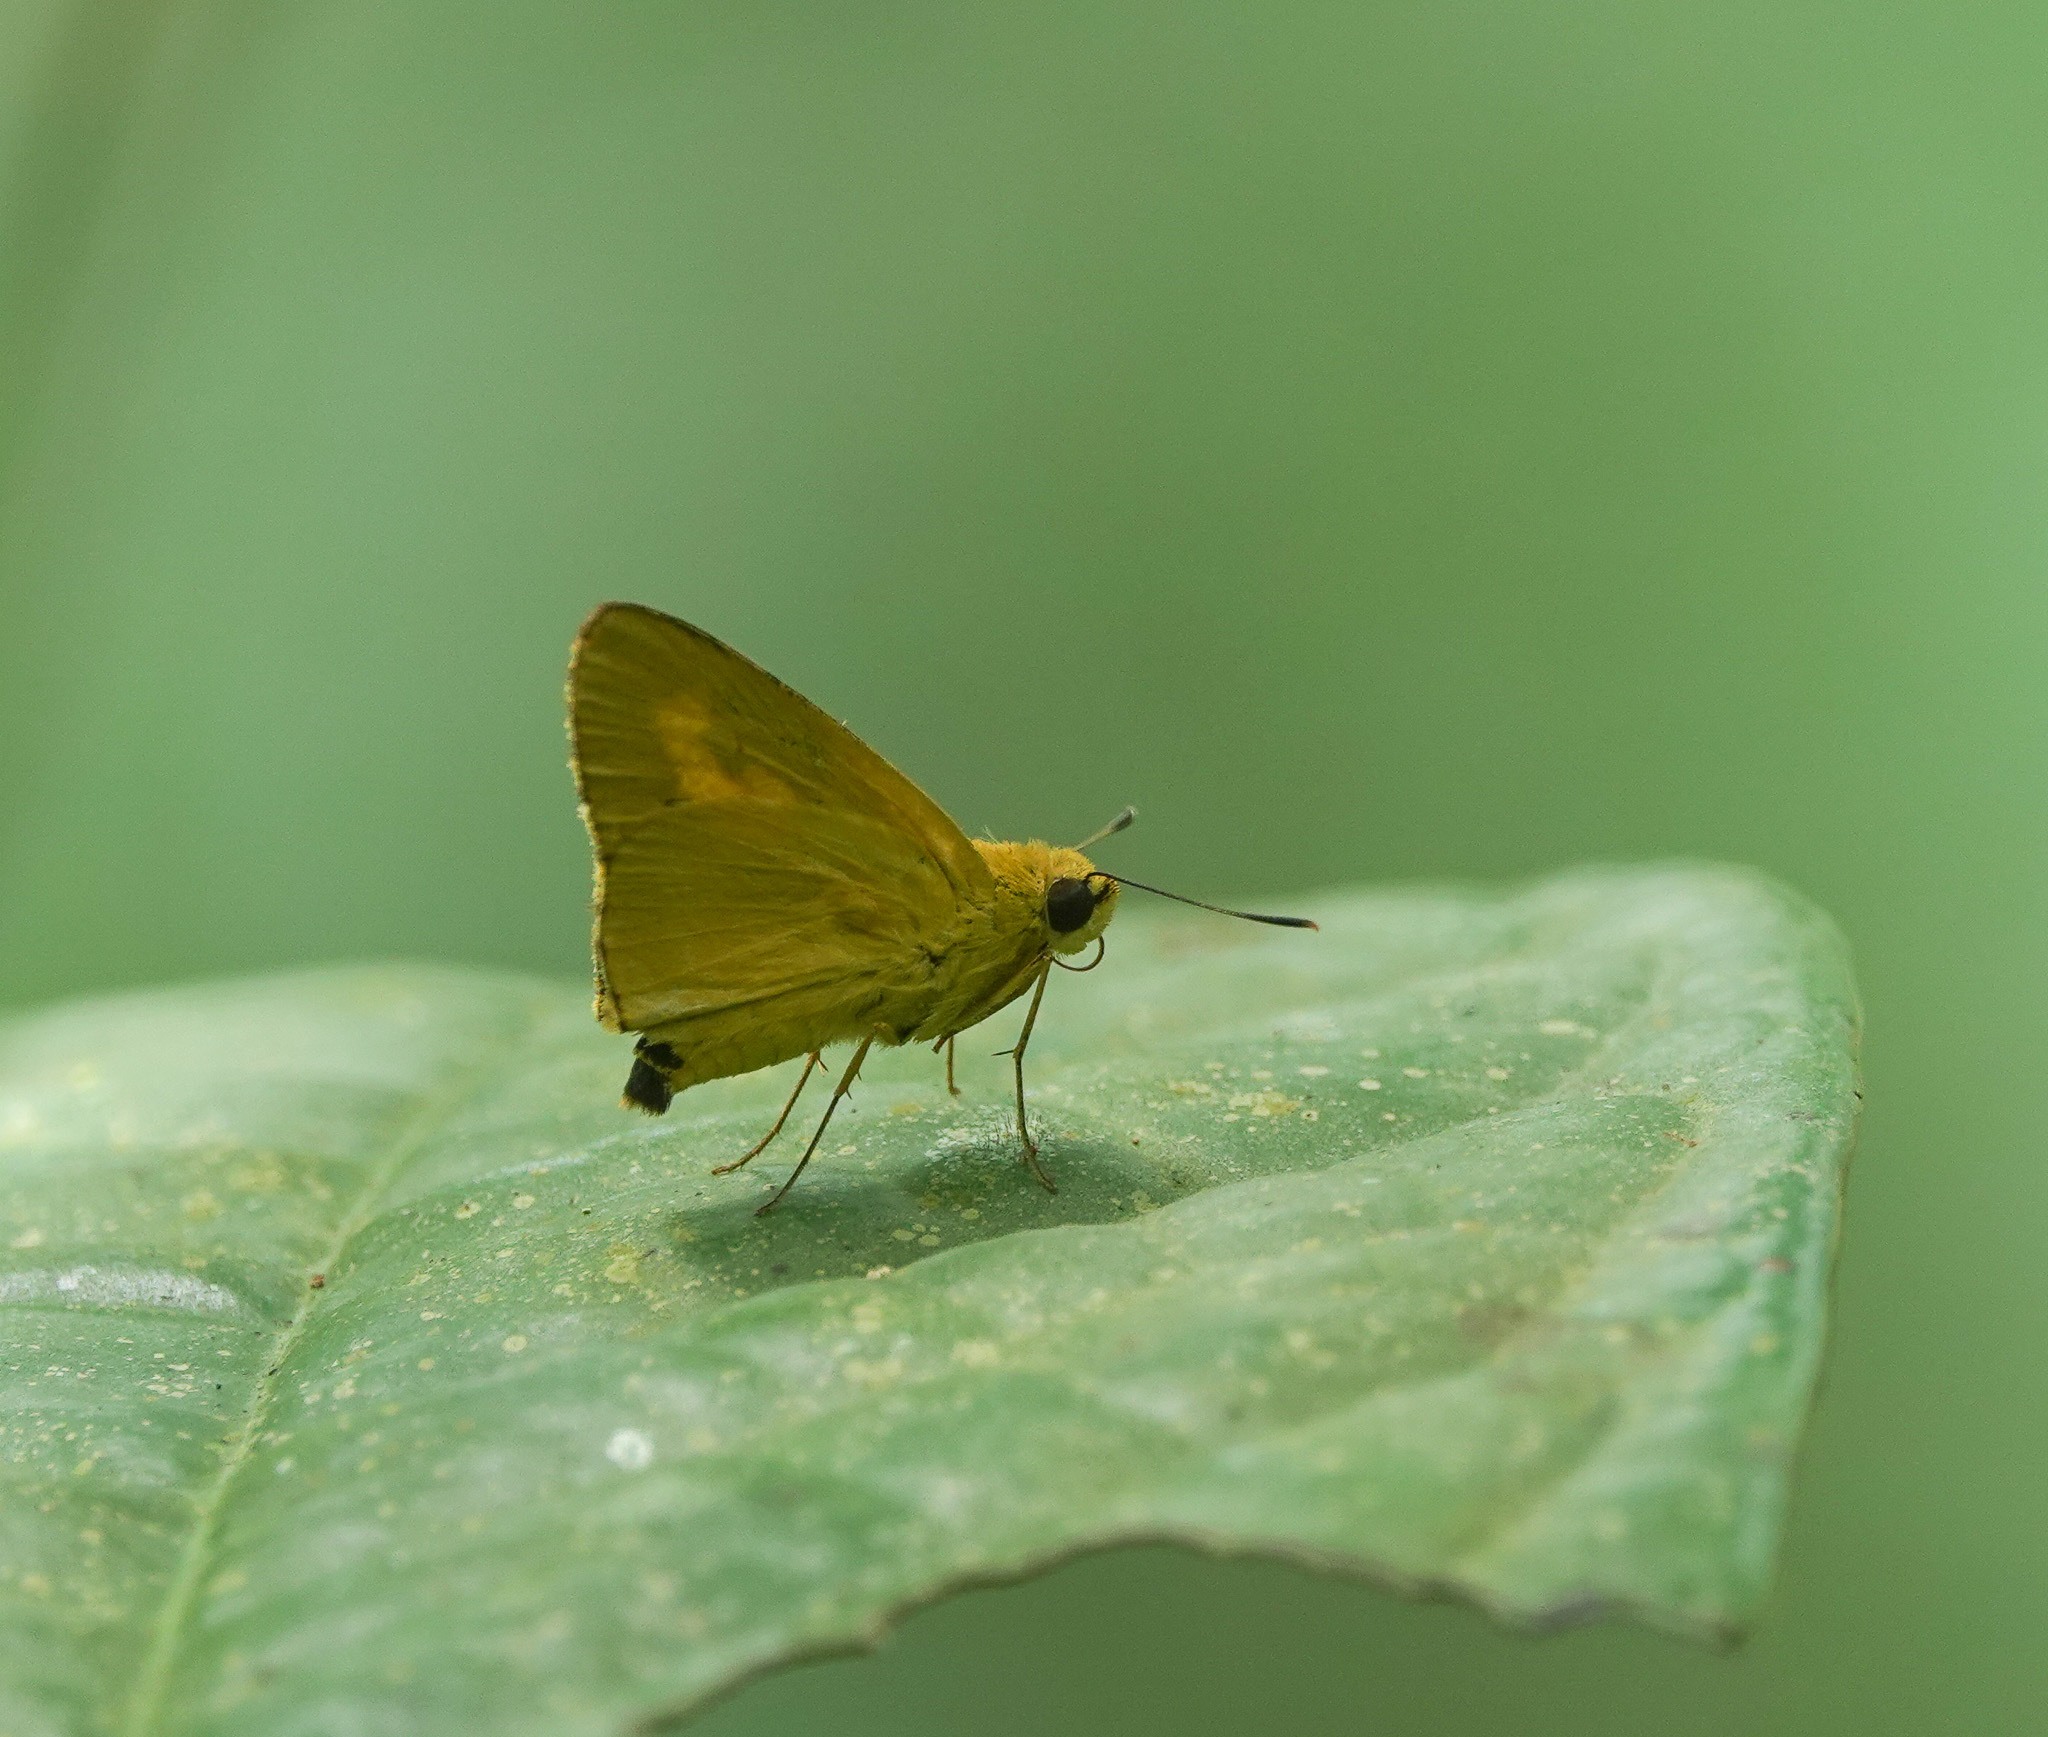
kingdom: Animalia
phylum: Arthropoda
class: Insecta
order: Lepidoptera
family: Hesperiidae
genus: Cupitha
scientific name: Cupitha purreea
